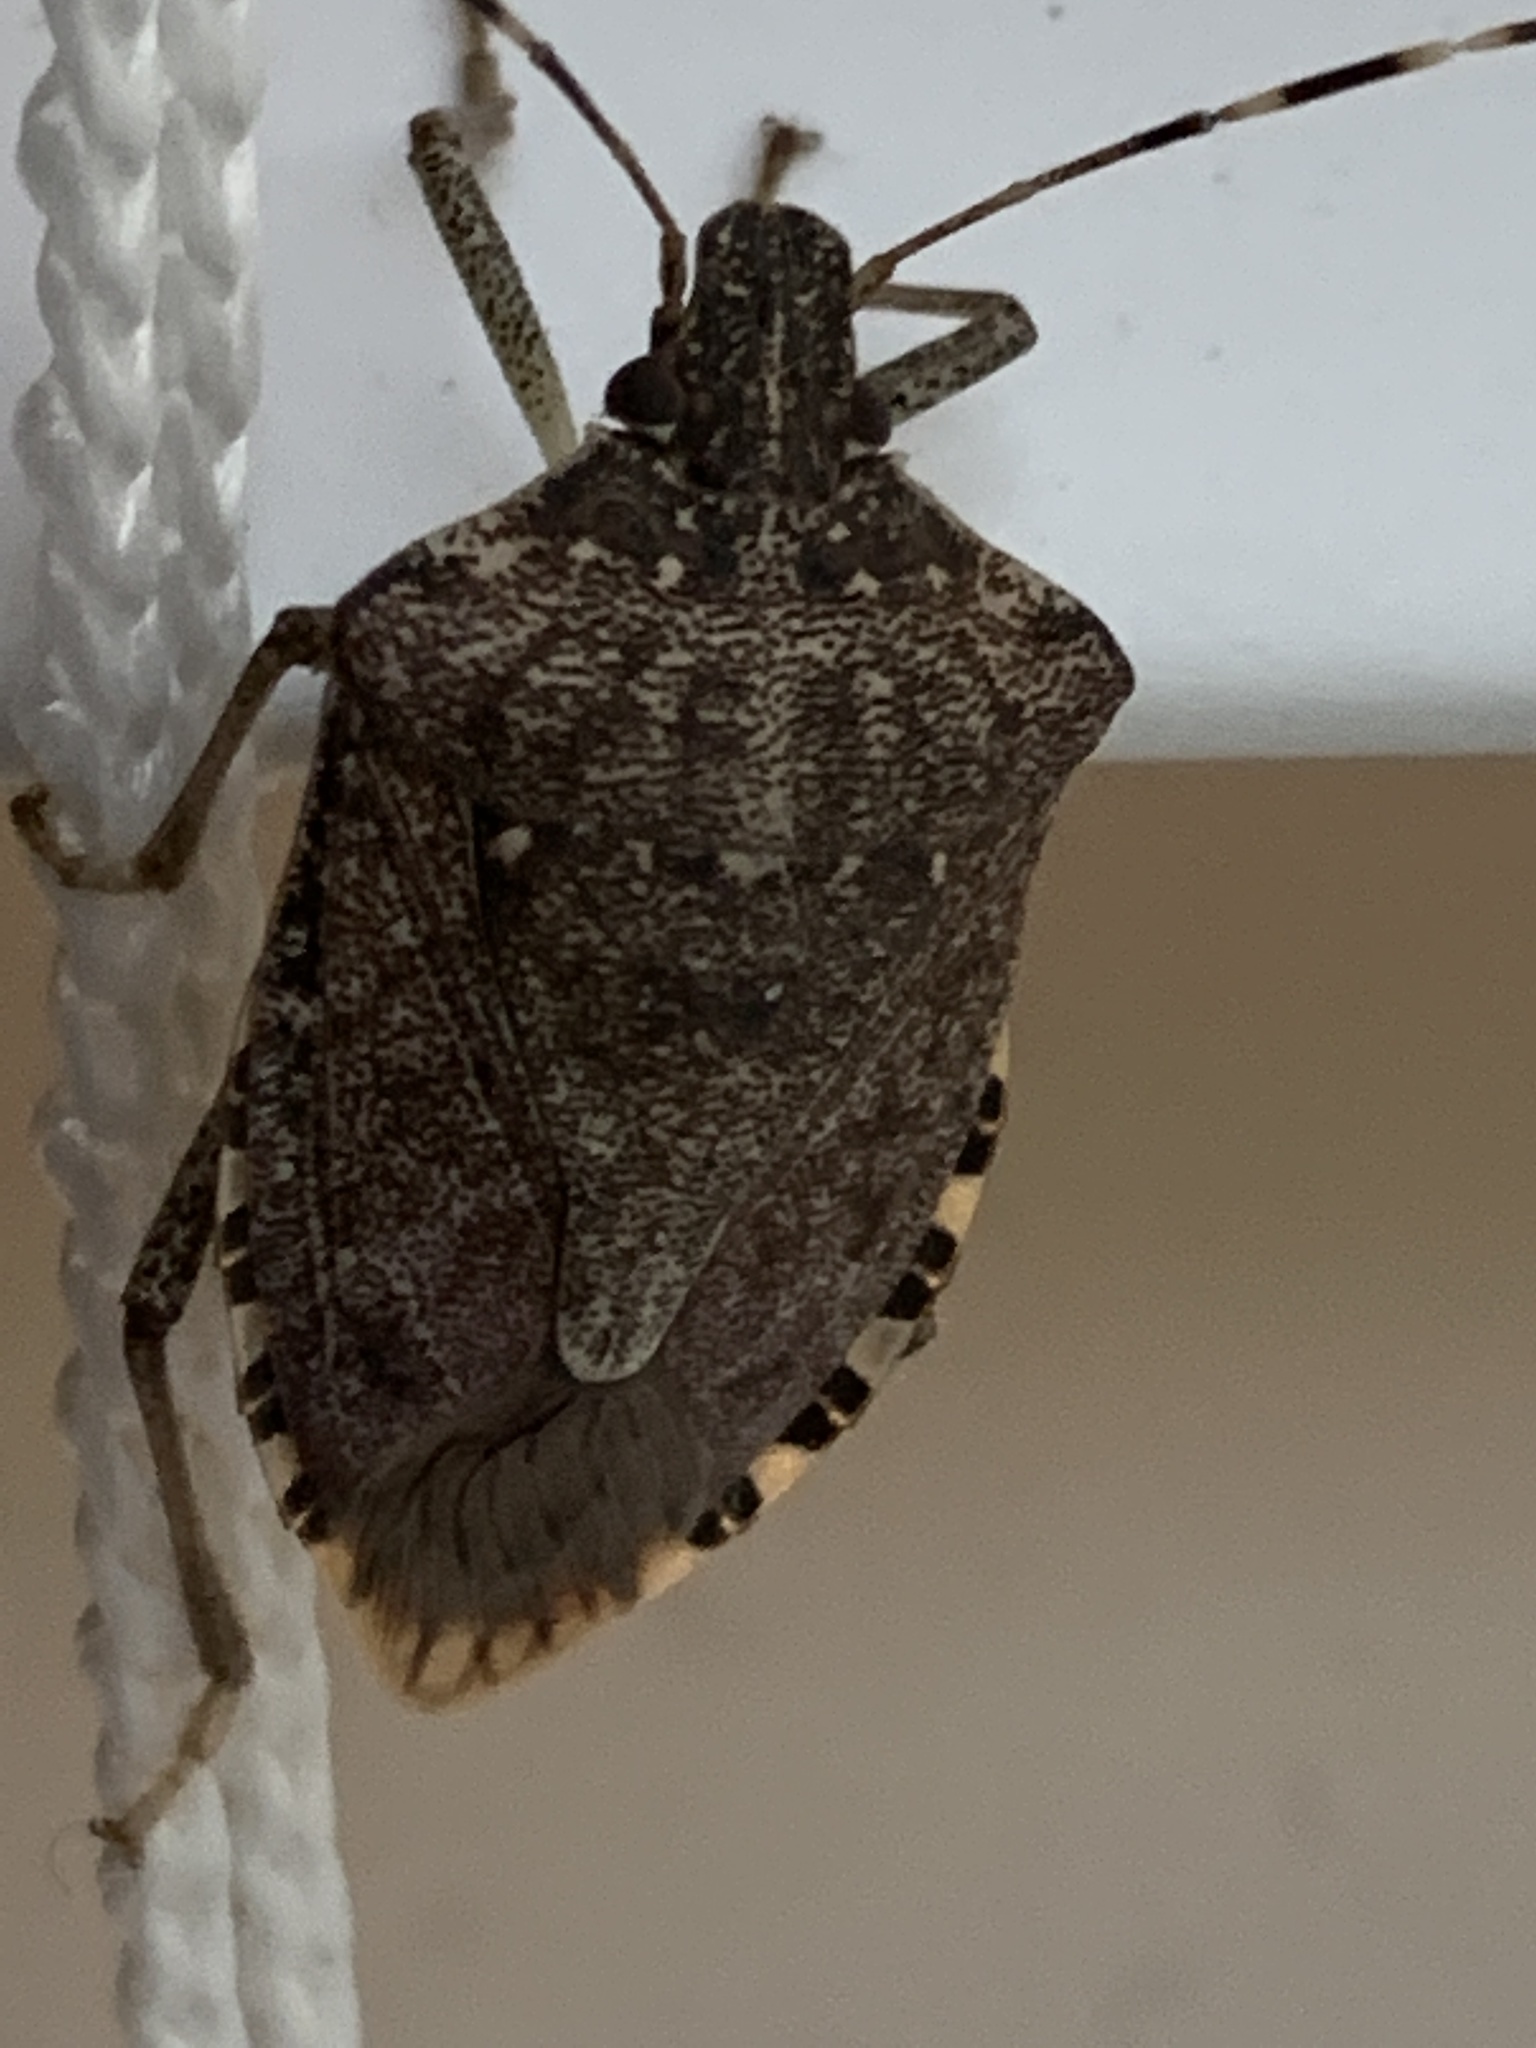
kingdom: Animalia
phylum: Arthropoda
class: Insecta
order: Hemiptera
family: Pentatomidae
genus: Halyomorpha
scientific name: Halyomorpha halys
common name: Brown marmorated stink bug
